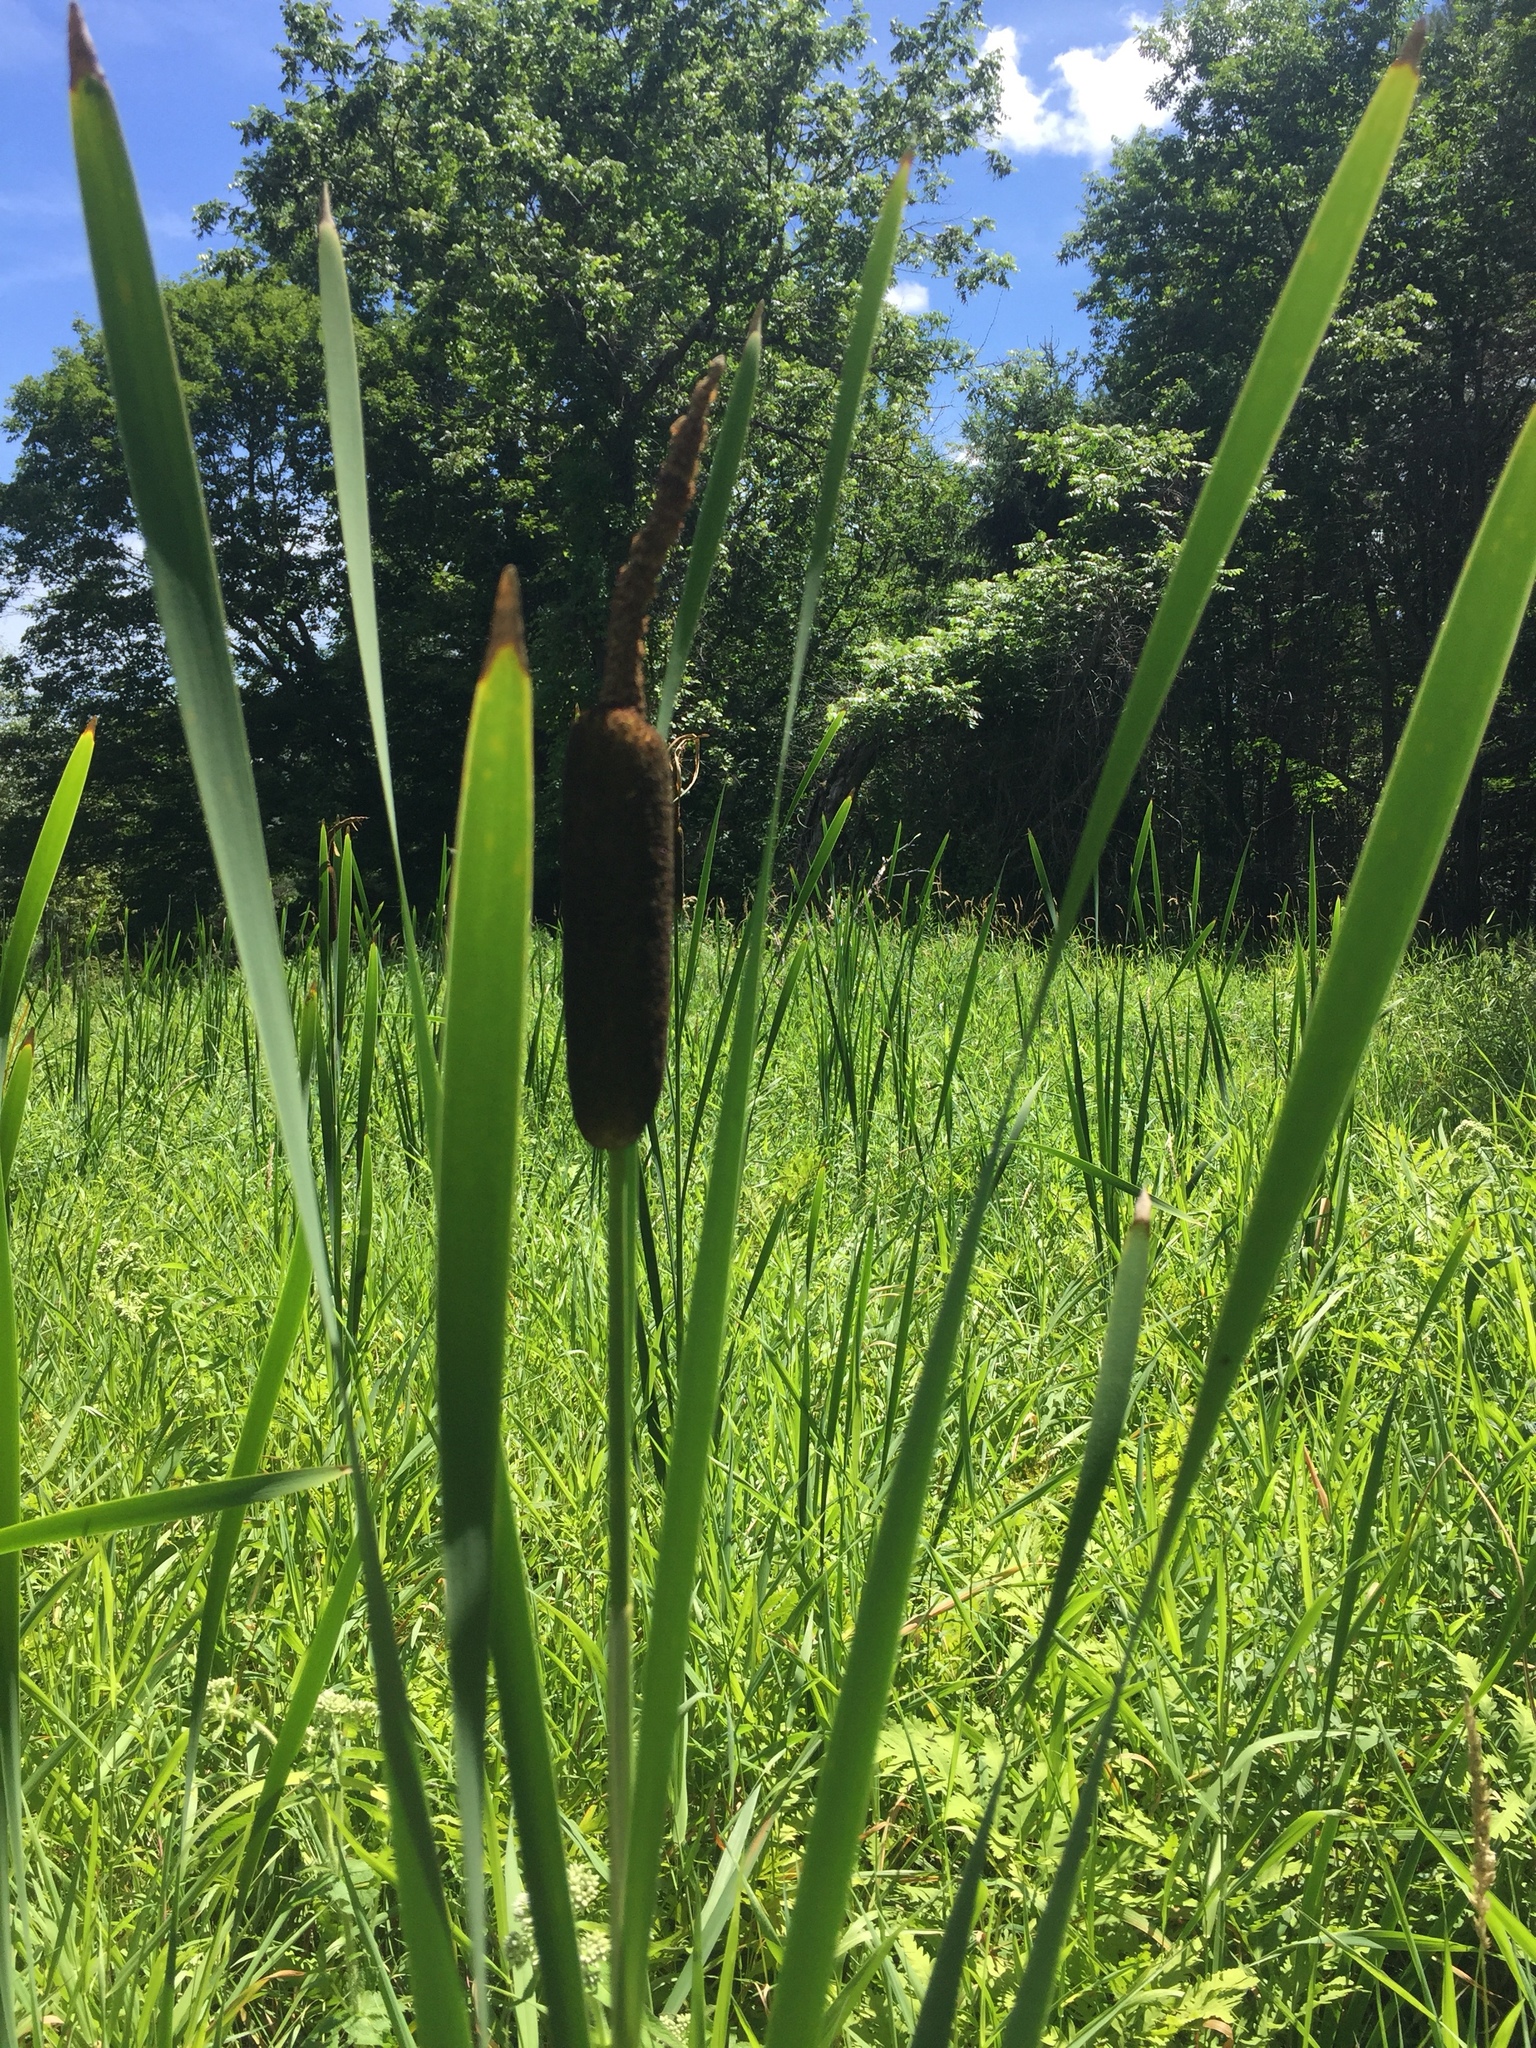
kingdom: Plantae
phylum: Tracheophyta
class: Liliopsida
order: Poales
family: Typhaceae
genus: Typha
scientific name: Typha latifolia
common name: Broadleaf cattail
